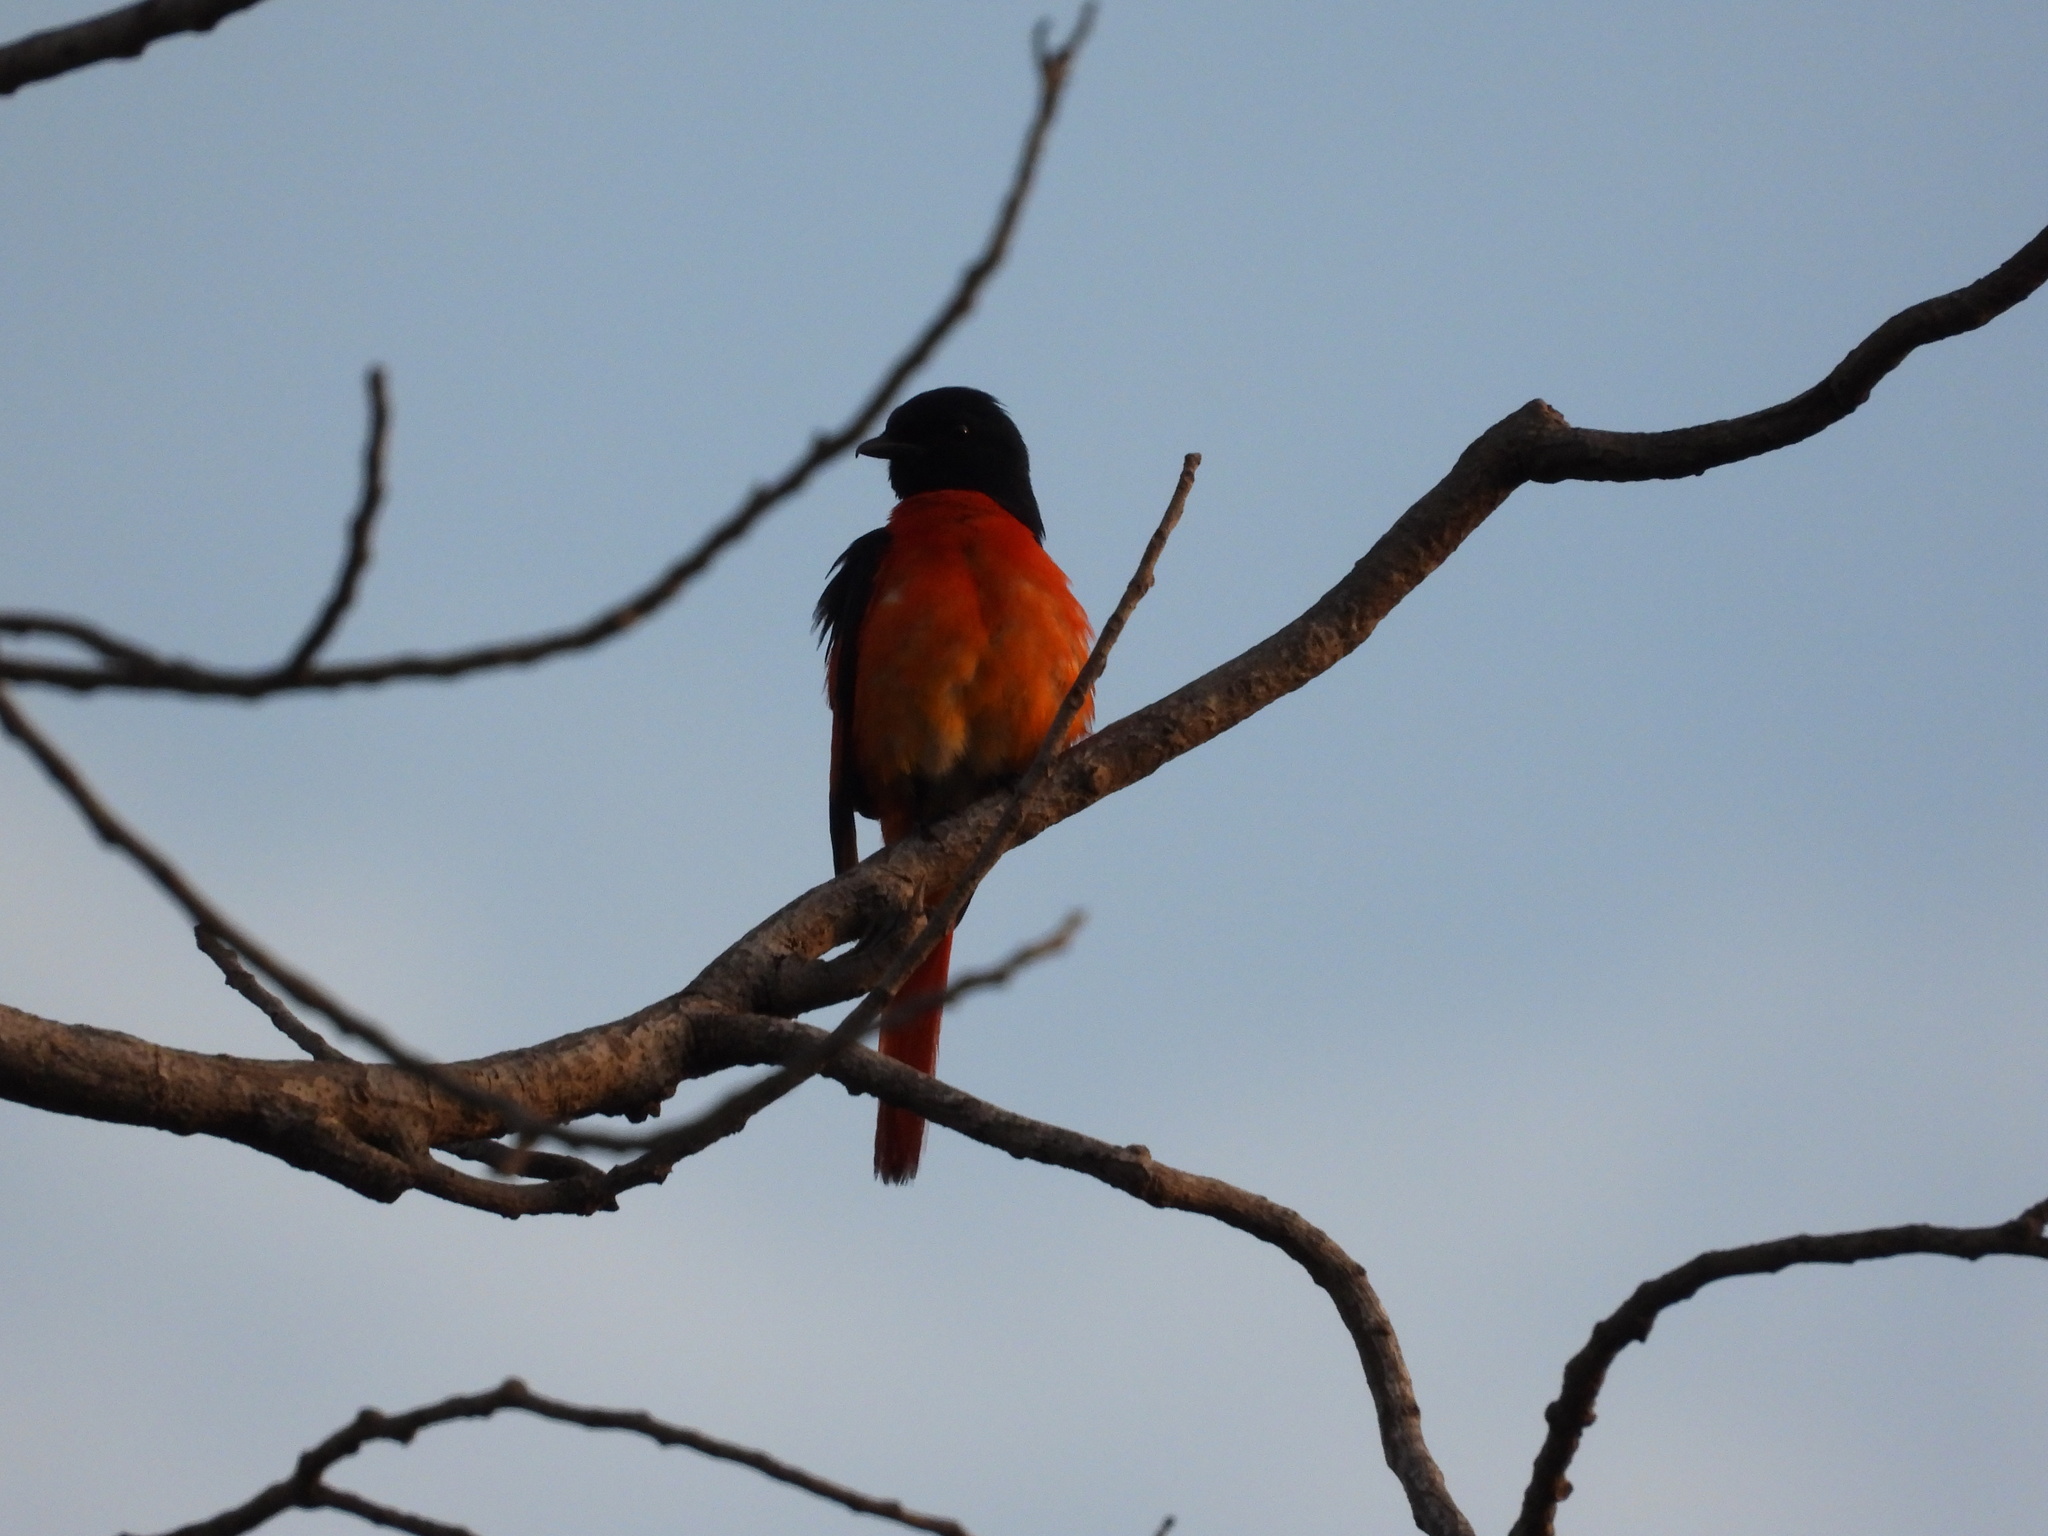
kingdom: Animalia
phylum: Chordata
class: Aves
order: Passeriformes
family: Campephagidae
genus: Pericrocotus
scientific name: Pericrocotus speciosus
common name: Scarlet minivet
